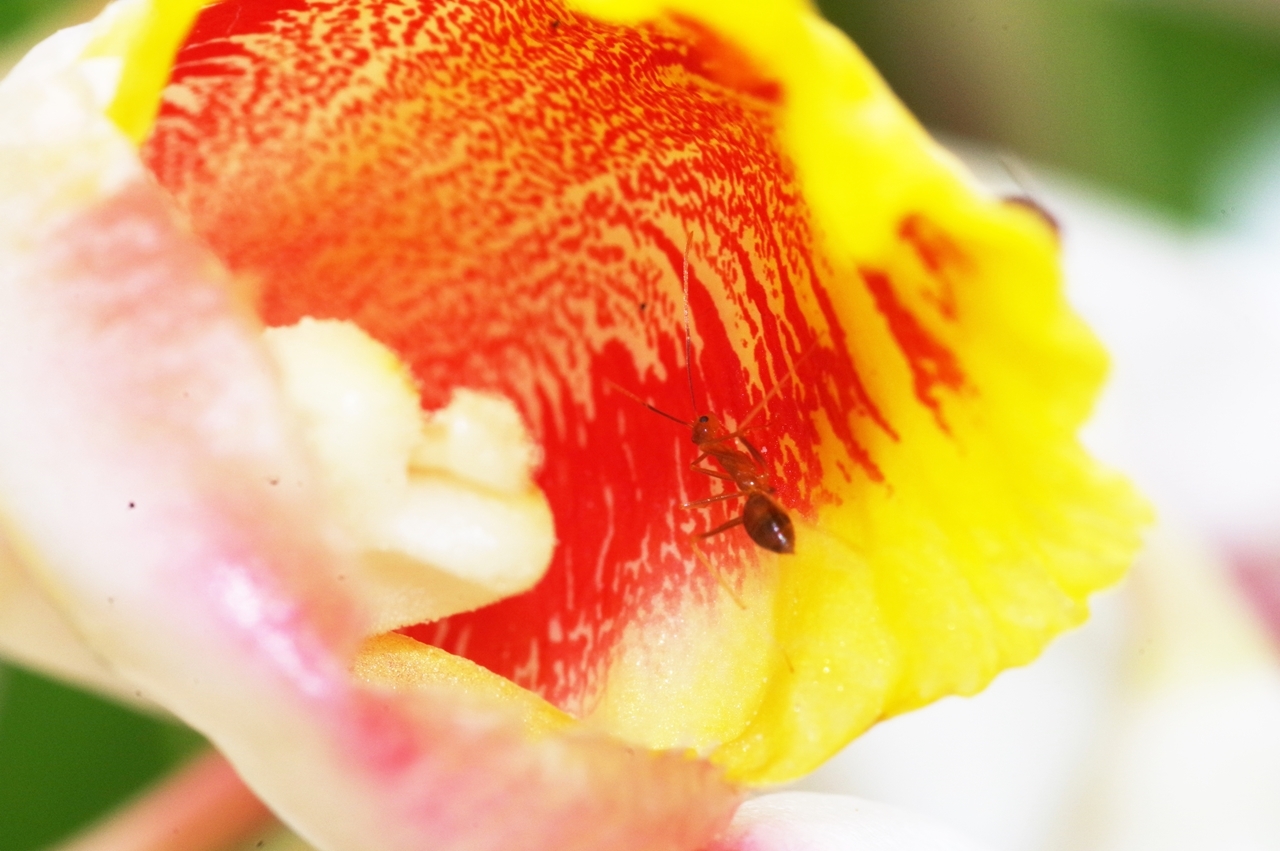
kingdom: Animalia
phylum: Arthropoda
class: Insecta
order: Hymenoptera
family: Formicidae
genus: Anoplolepis
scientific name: Anoplolepis gracilipes
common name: Ant
